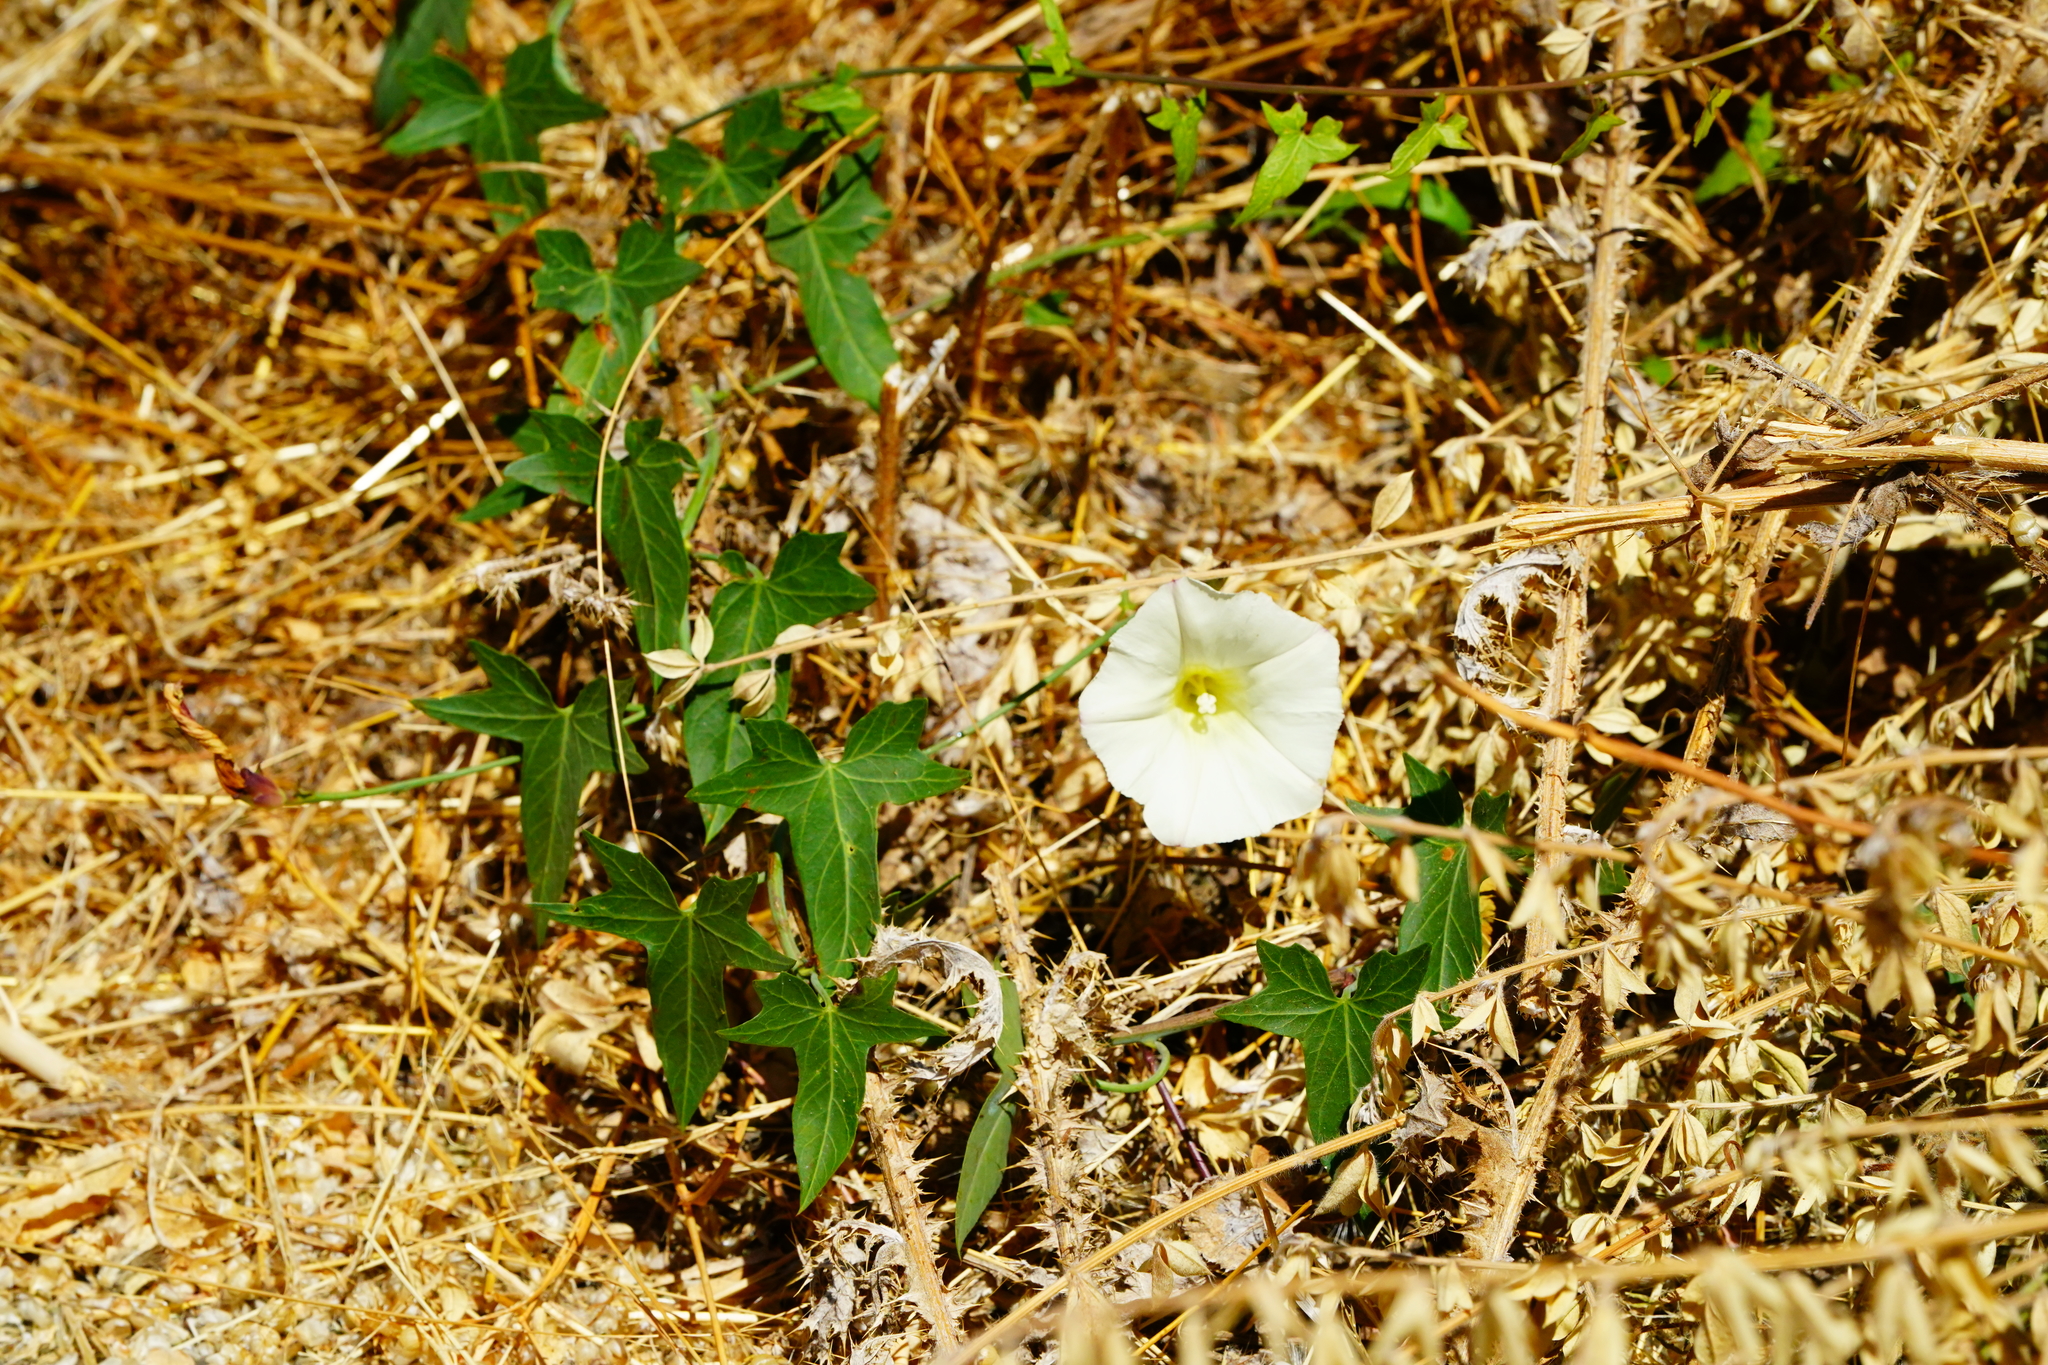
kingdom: Plantae
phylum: Tracheophyta
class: Magnoliopsida
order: Solanales
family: Convolvulaceae
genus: Calystegia
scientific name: Calystegia purpurata
